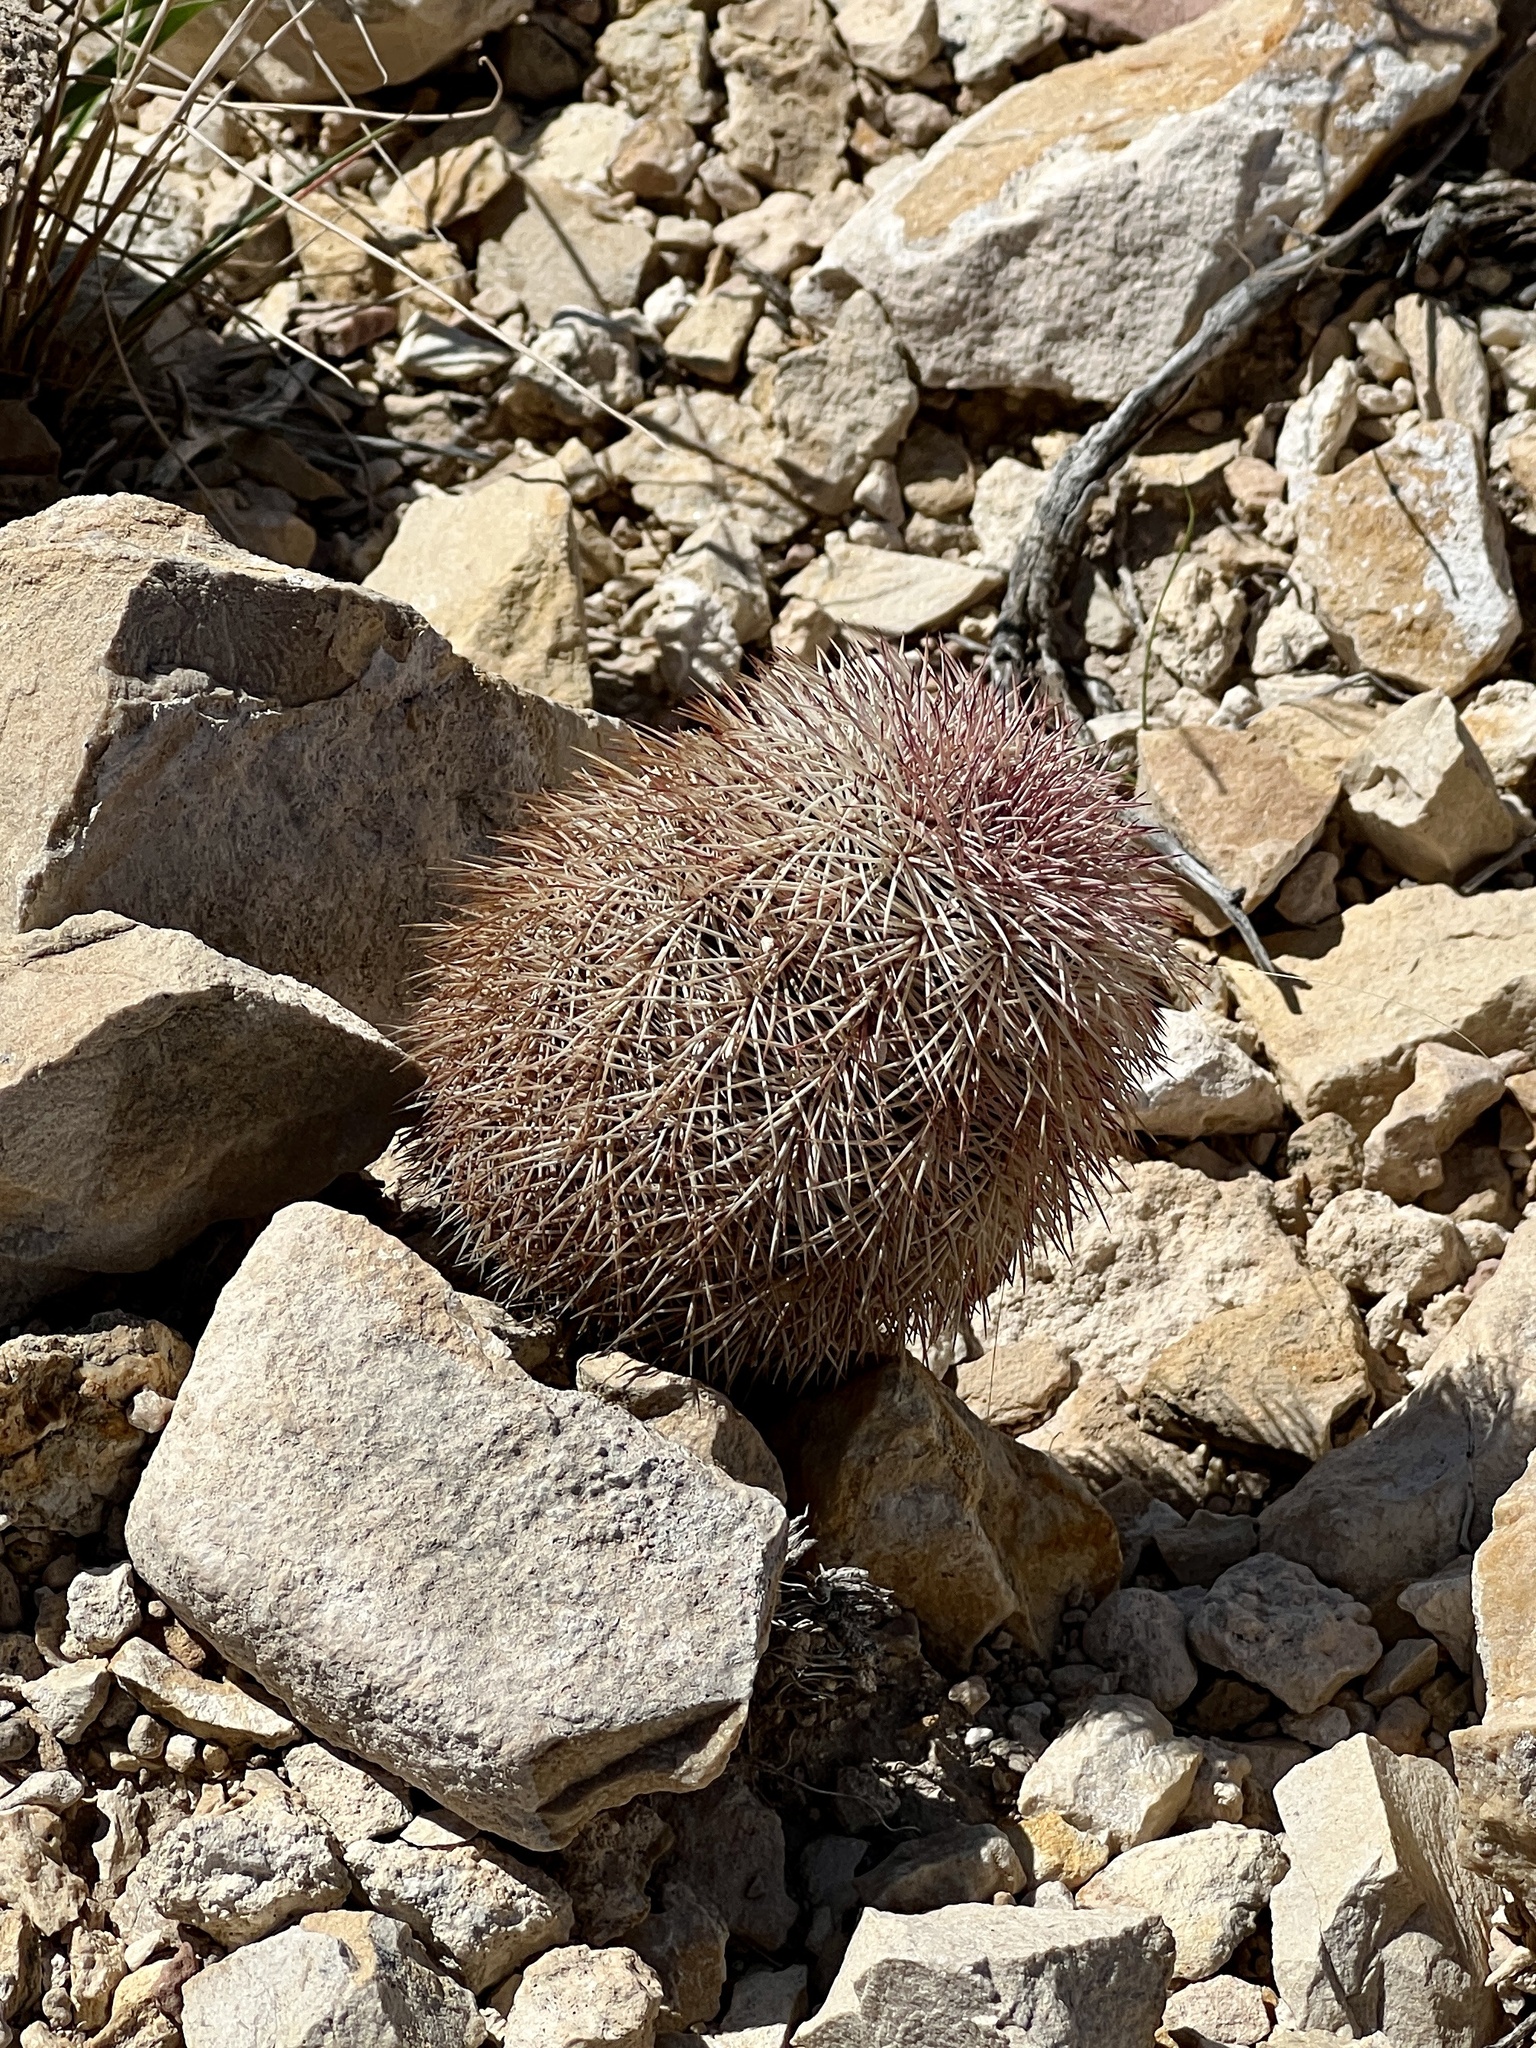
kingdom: Plantae
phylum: Tracheophyta
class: Magnoliopsida
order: Caryophyllales
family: Cactaceae
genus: Echinocereus
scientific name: Echinocereus dasyacanthus
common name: Spiny hedgehog cactus
